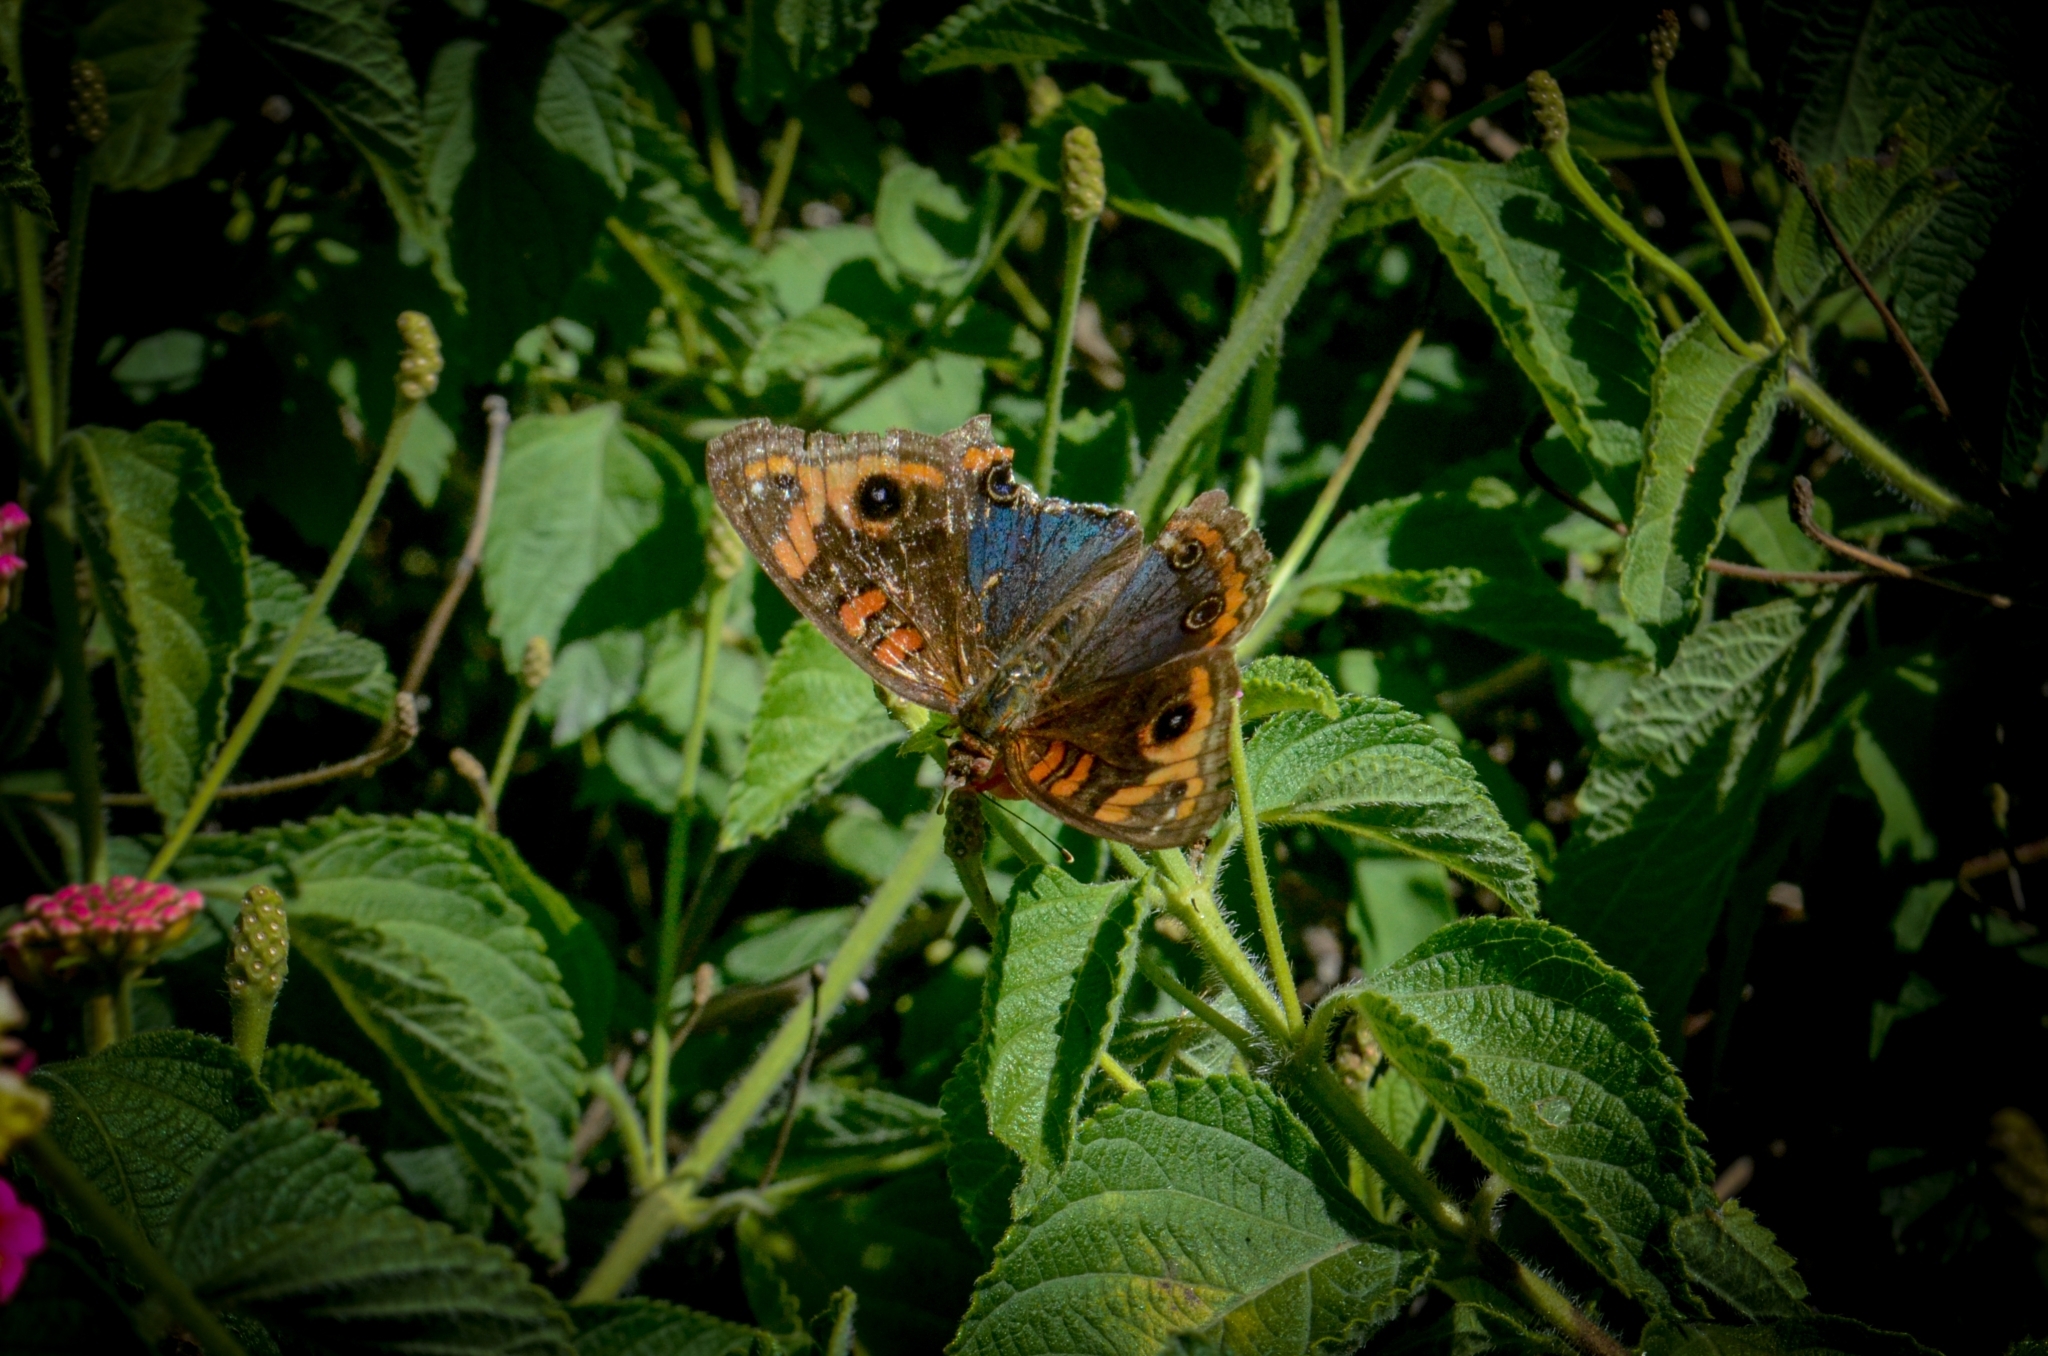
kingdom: Animalia
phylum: Arthropoda
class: Insecta
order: Lepidoptera
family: Nymphalidae
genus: Junonia
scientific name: Junonia evarete
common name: Black mangrove buckeye
